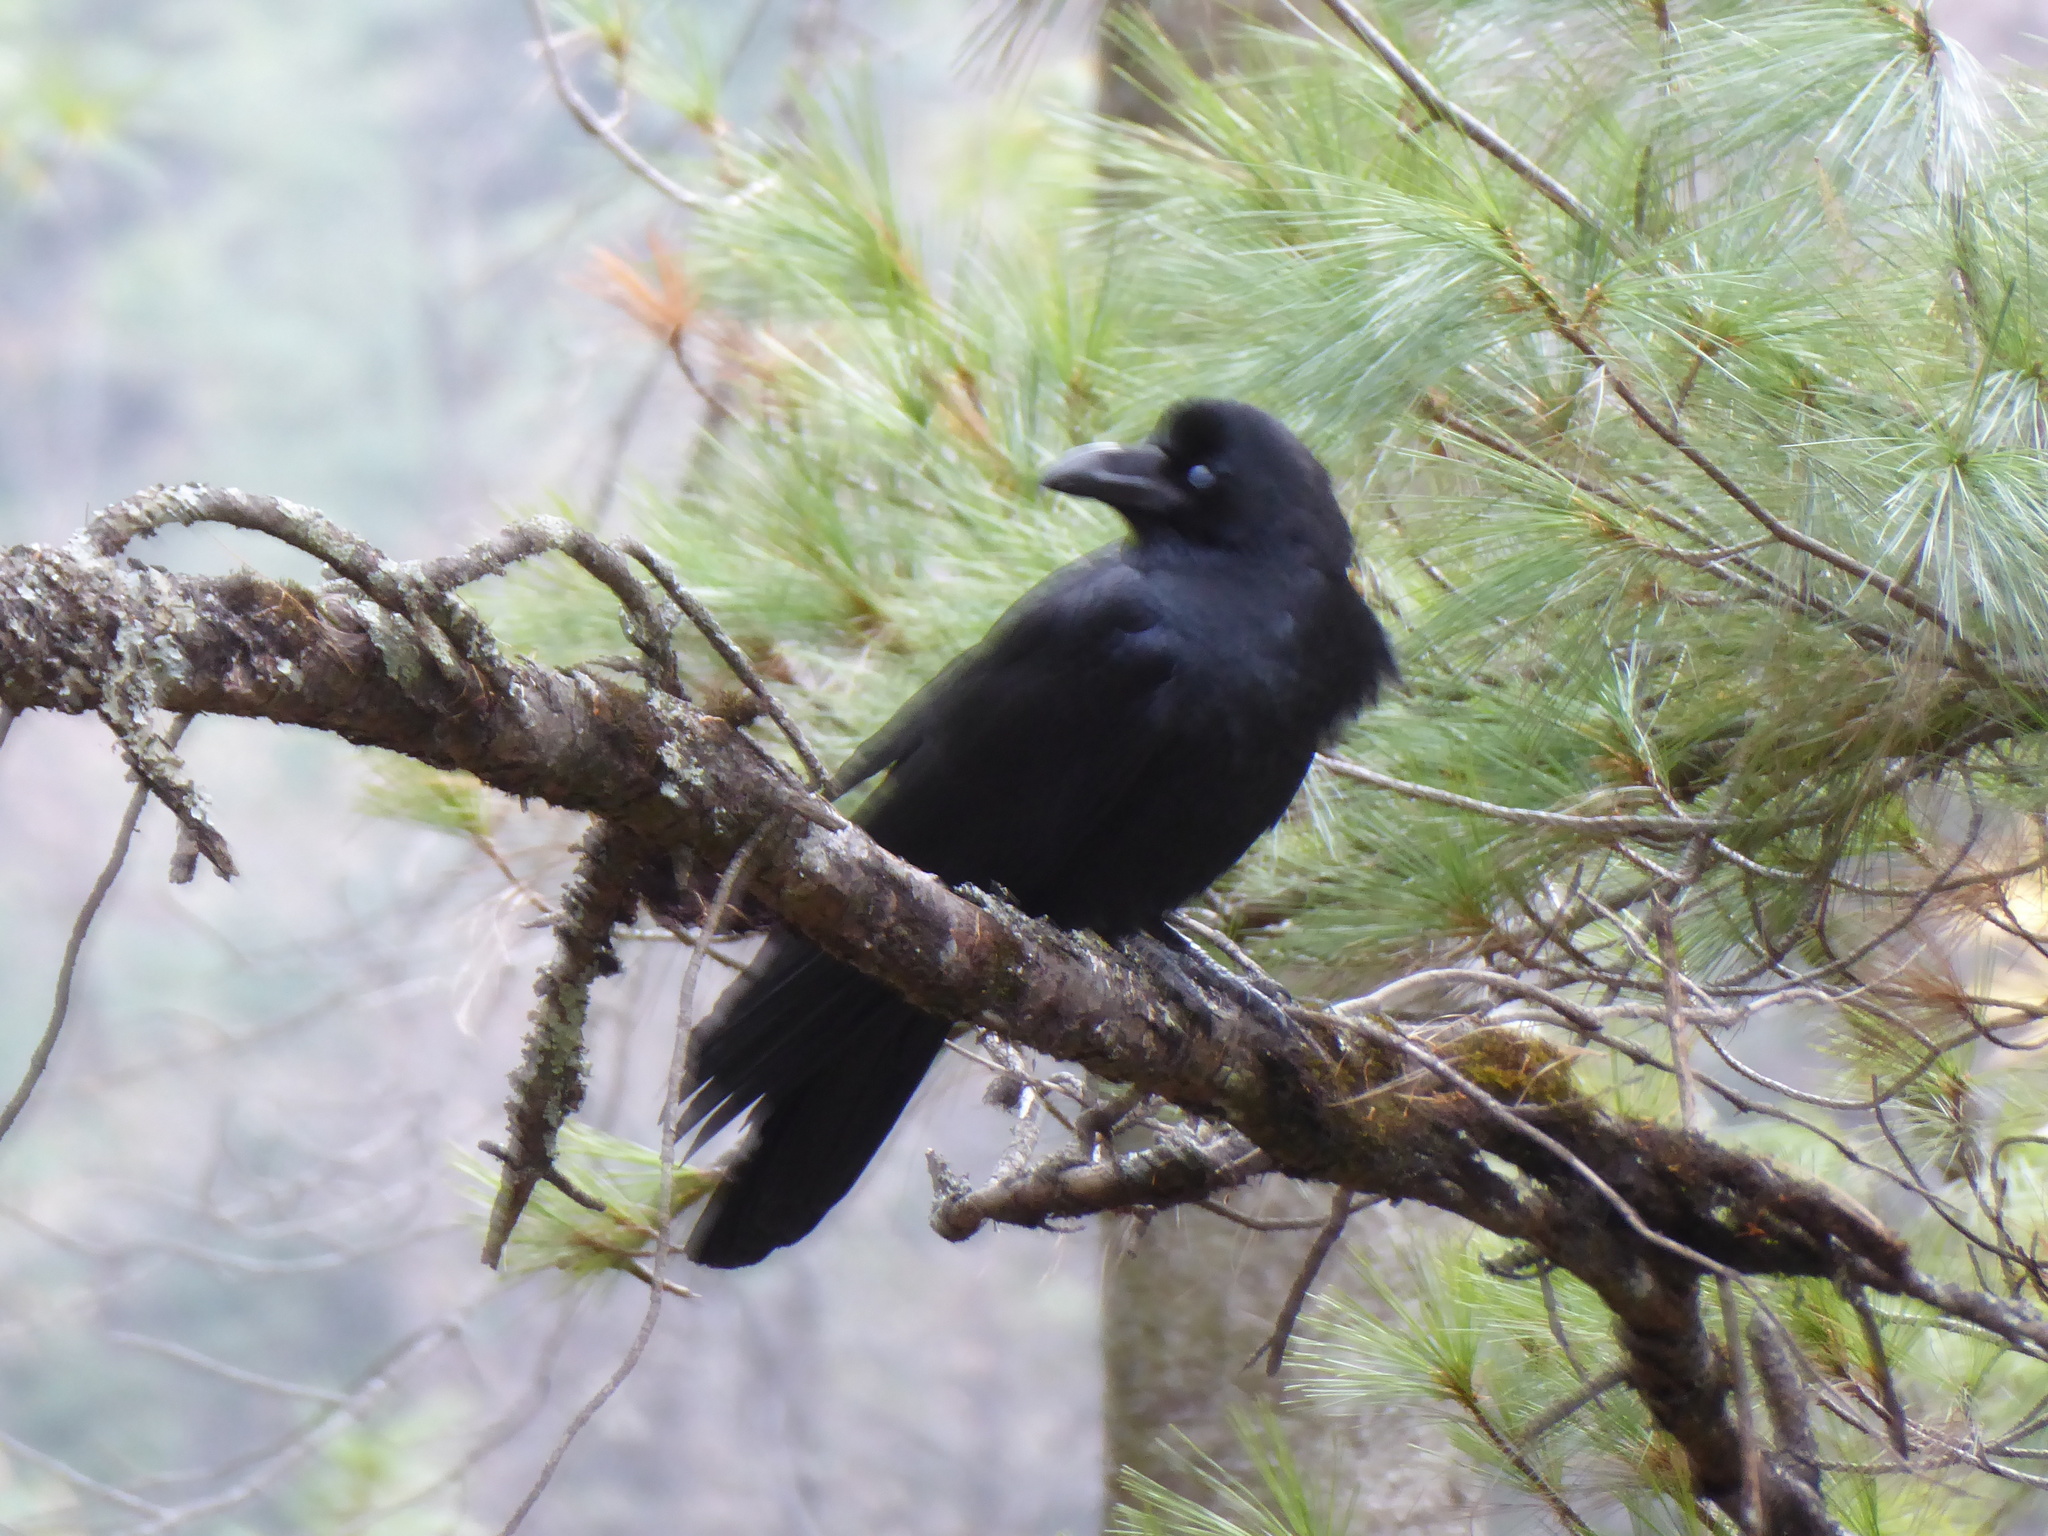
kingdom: Animalia
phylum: Chordata
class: Aves
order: Passeriformes
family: Corvidae
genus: Corvus
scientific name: Corvus macrorhynchos
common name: Large-billed crow
